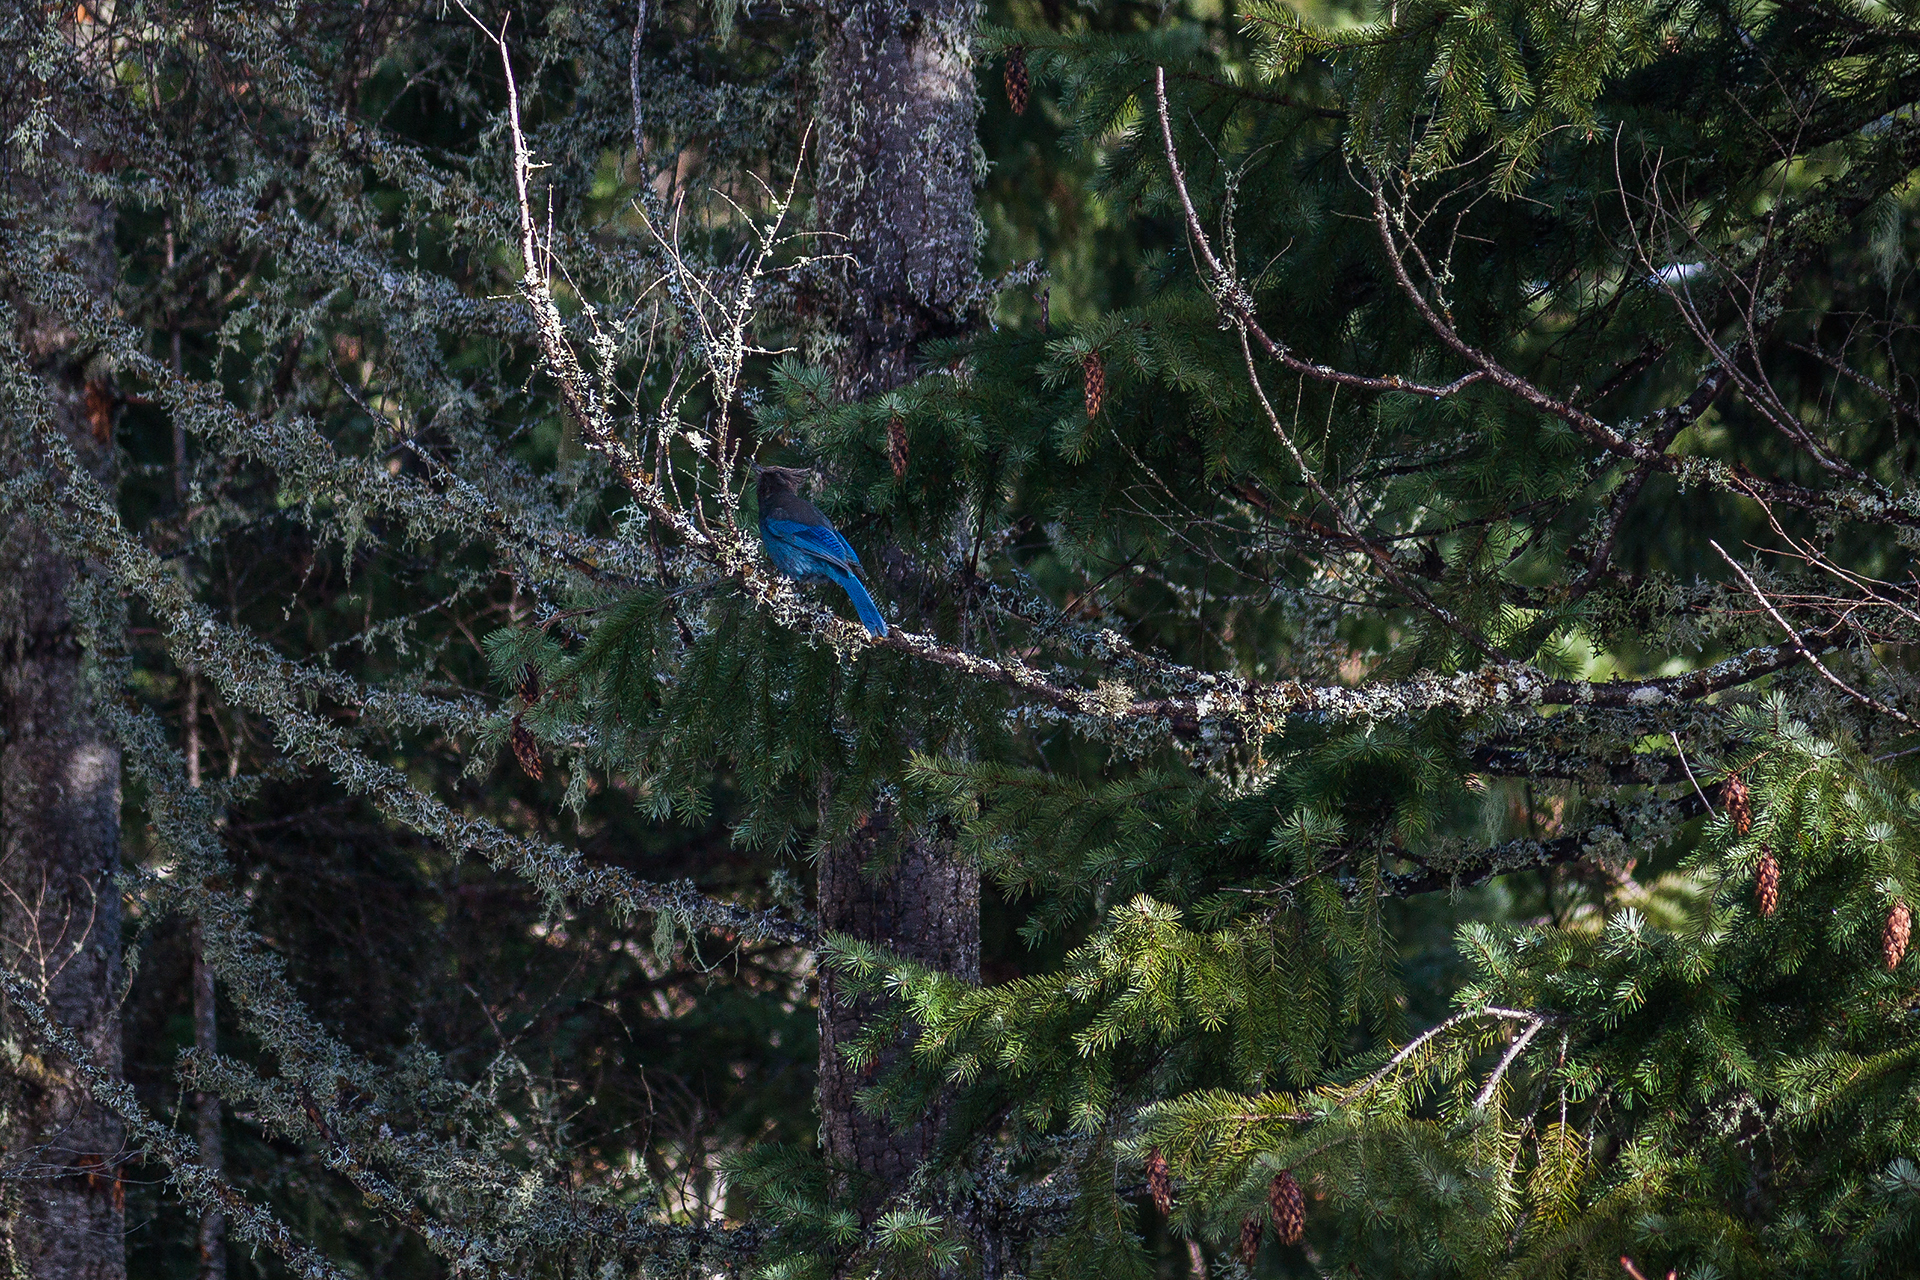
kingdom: Animalia
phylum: Chordata
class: Aves
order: Passeriformes
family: Corvidae
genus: Cyanocitta
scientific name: Cyanocitta stelleri
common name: Steller's jay
